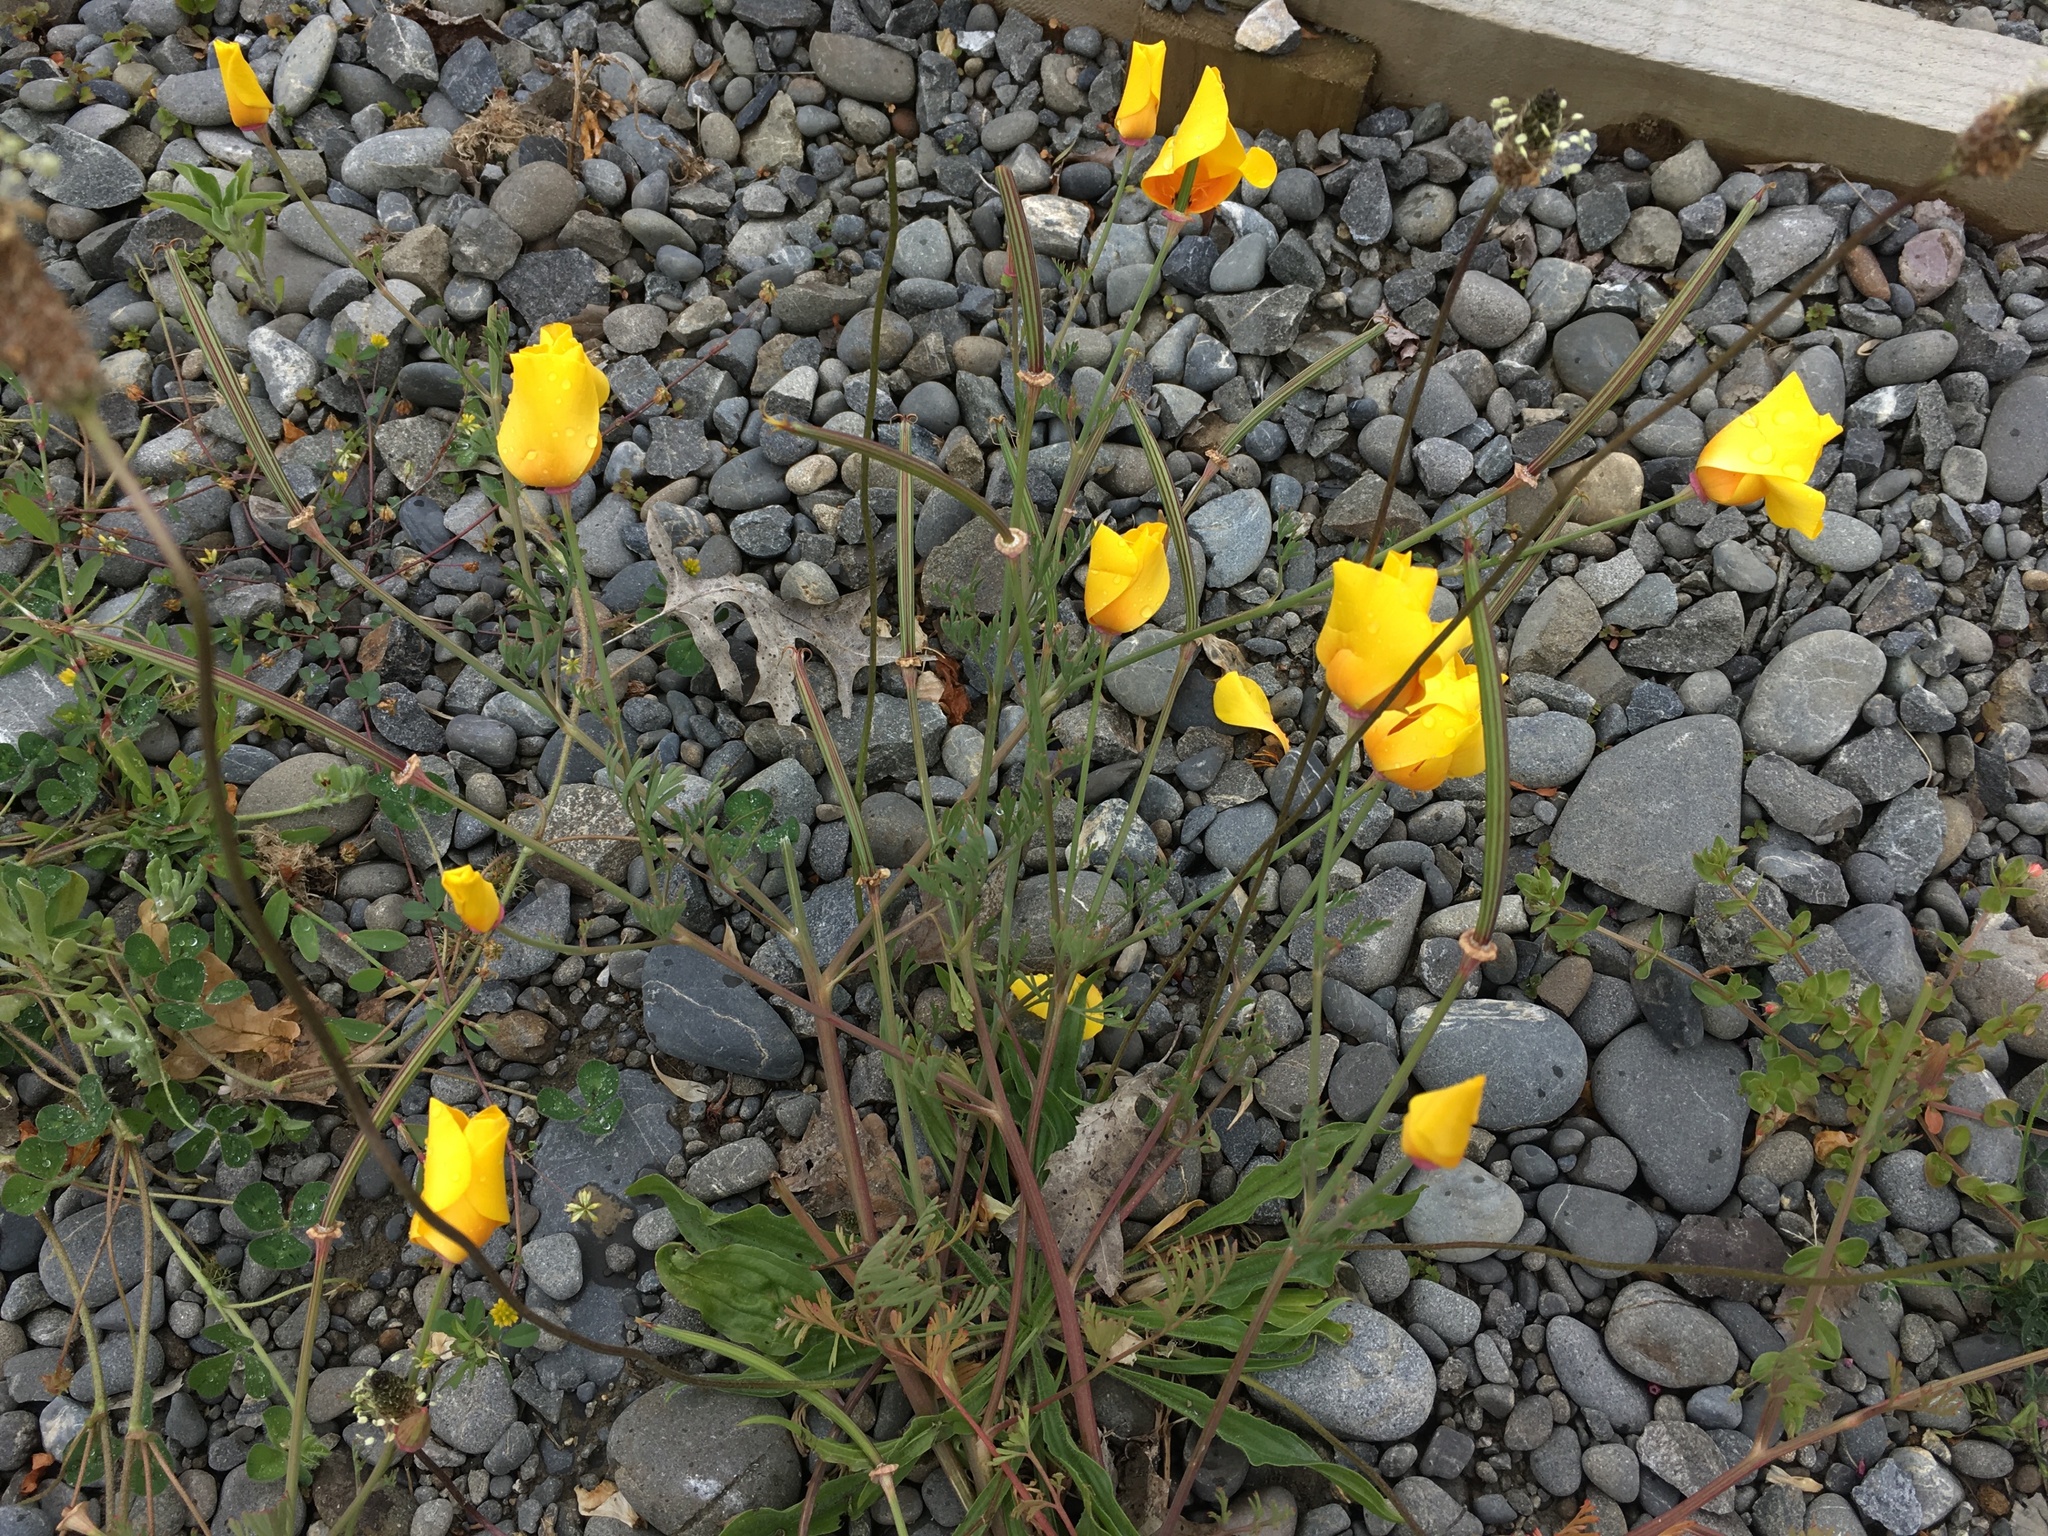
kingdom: Plantae
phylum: Tracheophyta
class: Magnoliopsida
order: Ranunculales
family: Papaveraceae
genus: Eschscholzia
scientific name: Eschscholzia californica
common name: California poppy
